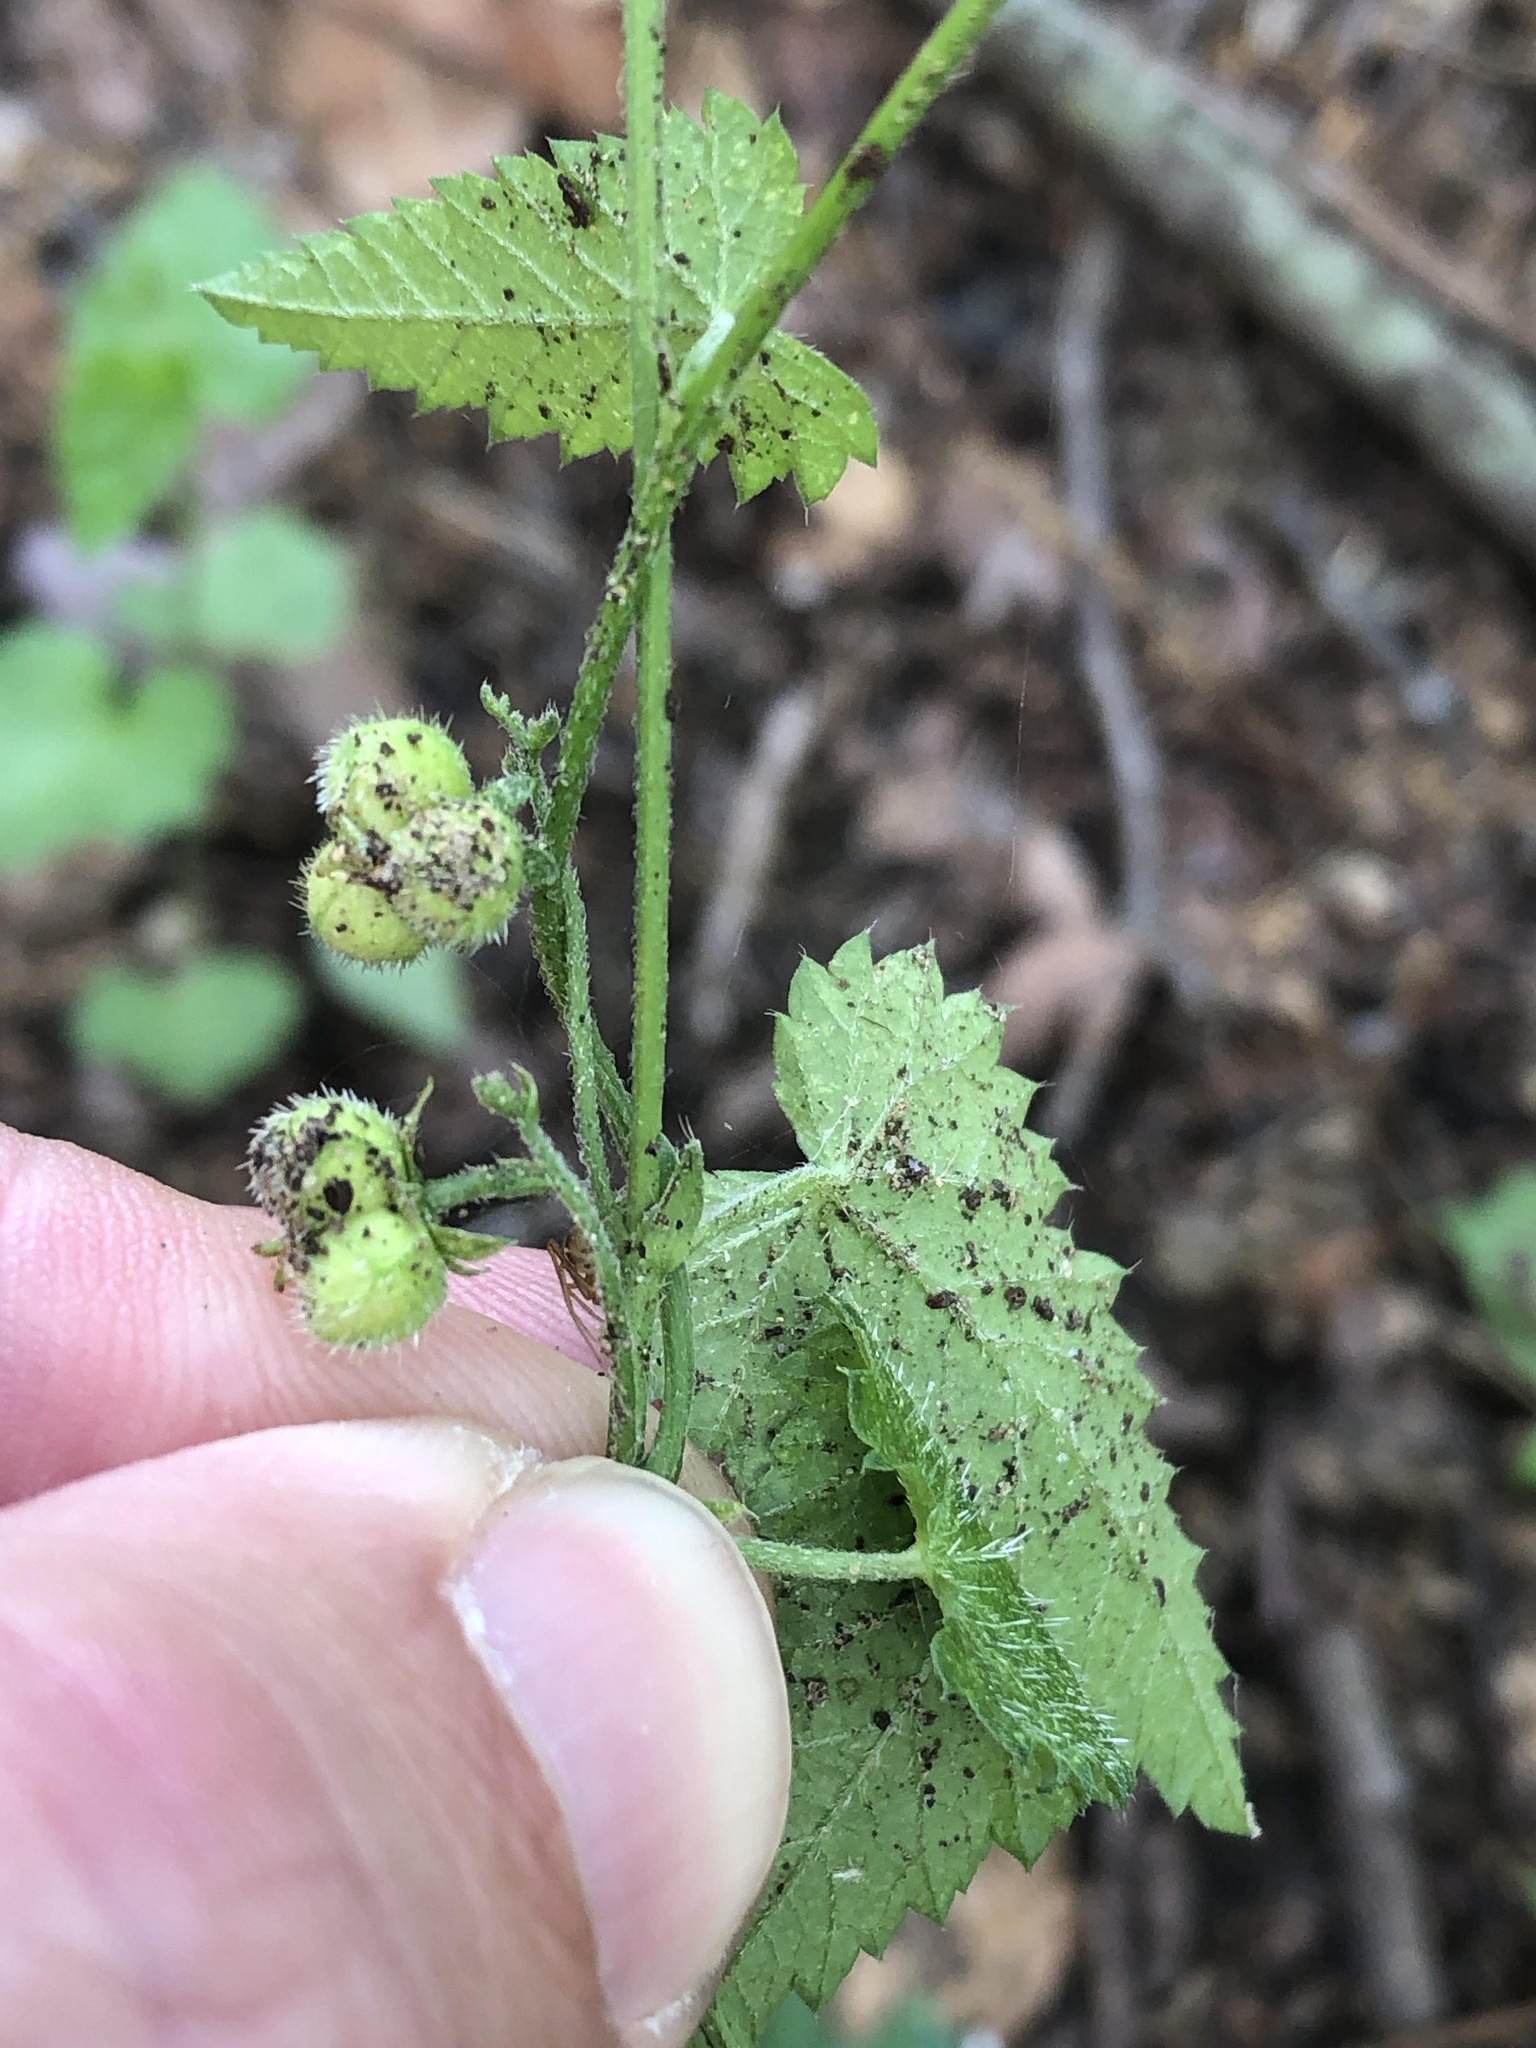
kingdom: Plantae
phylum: Tracheophyta
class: Magnoliopsida
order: Malpighiales
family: Euphorbiaceae
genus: Tragia
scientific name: Tragia urticifolia
